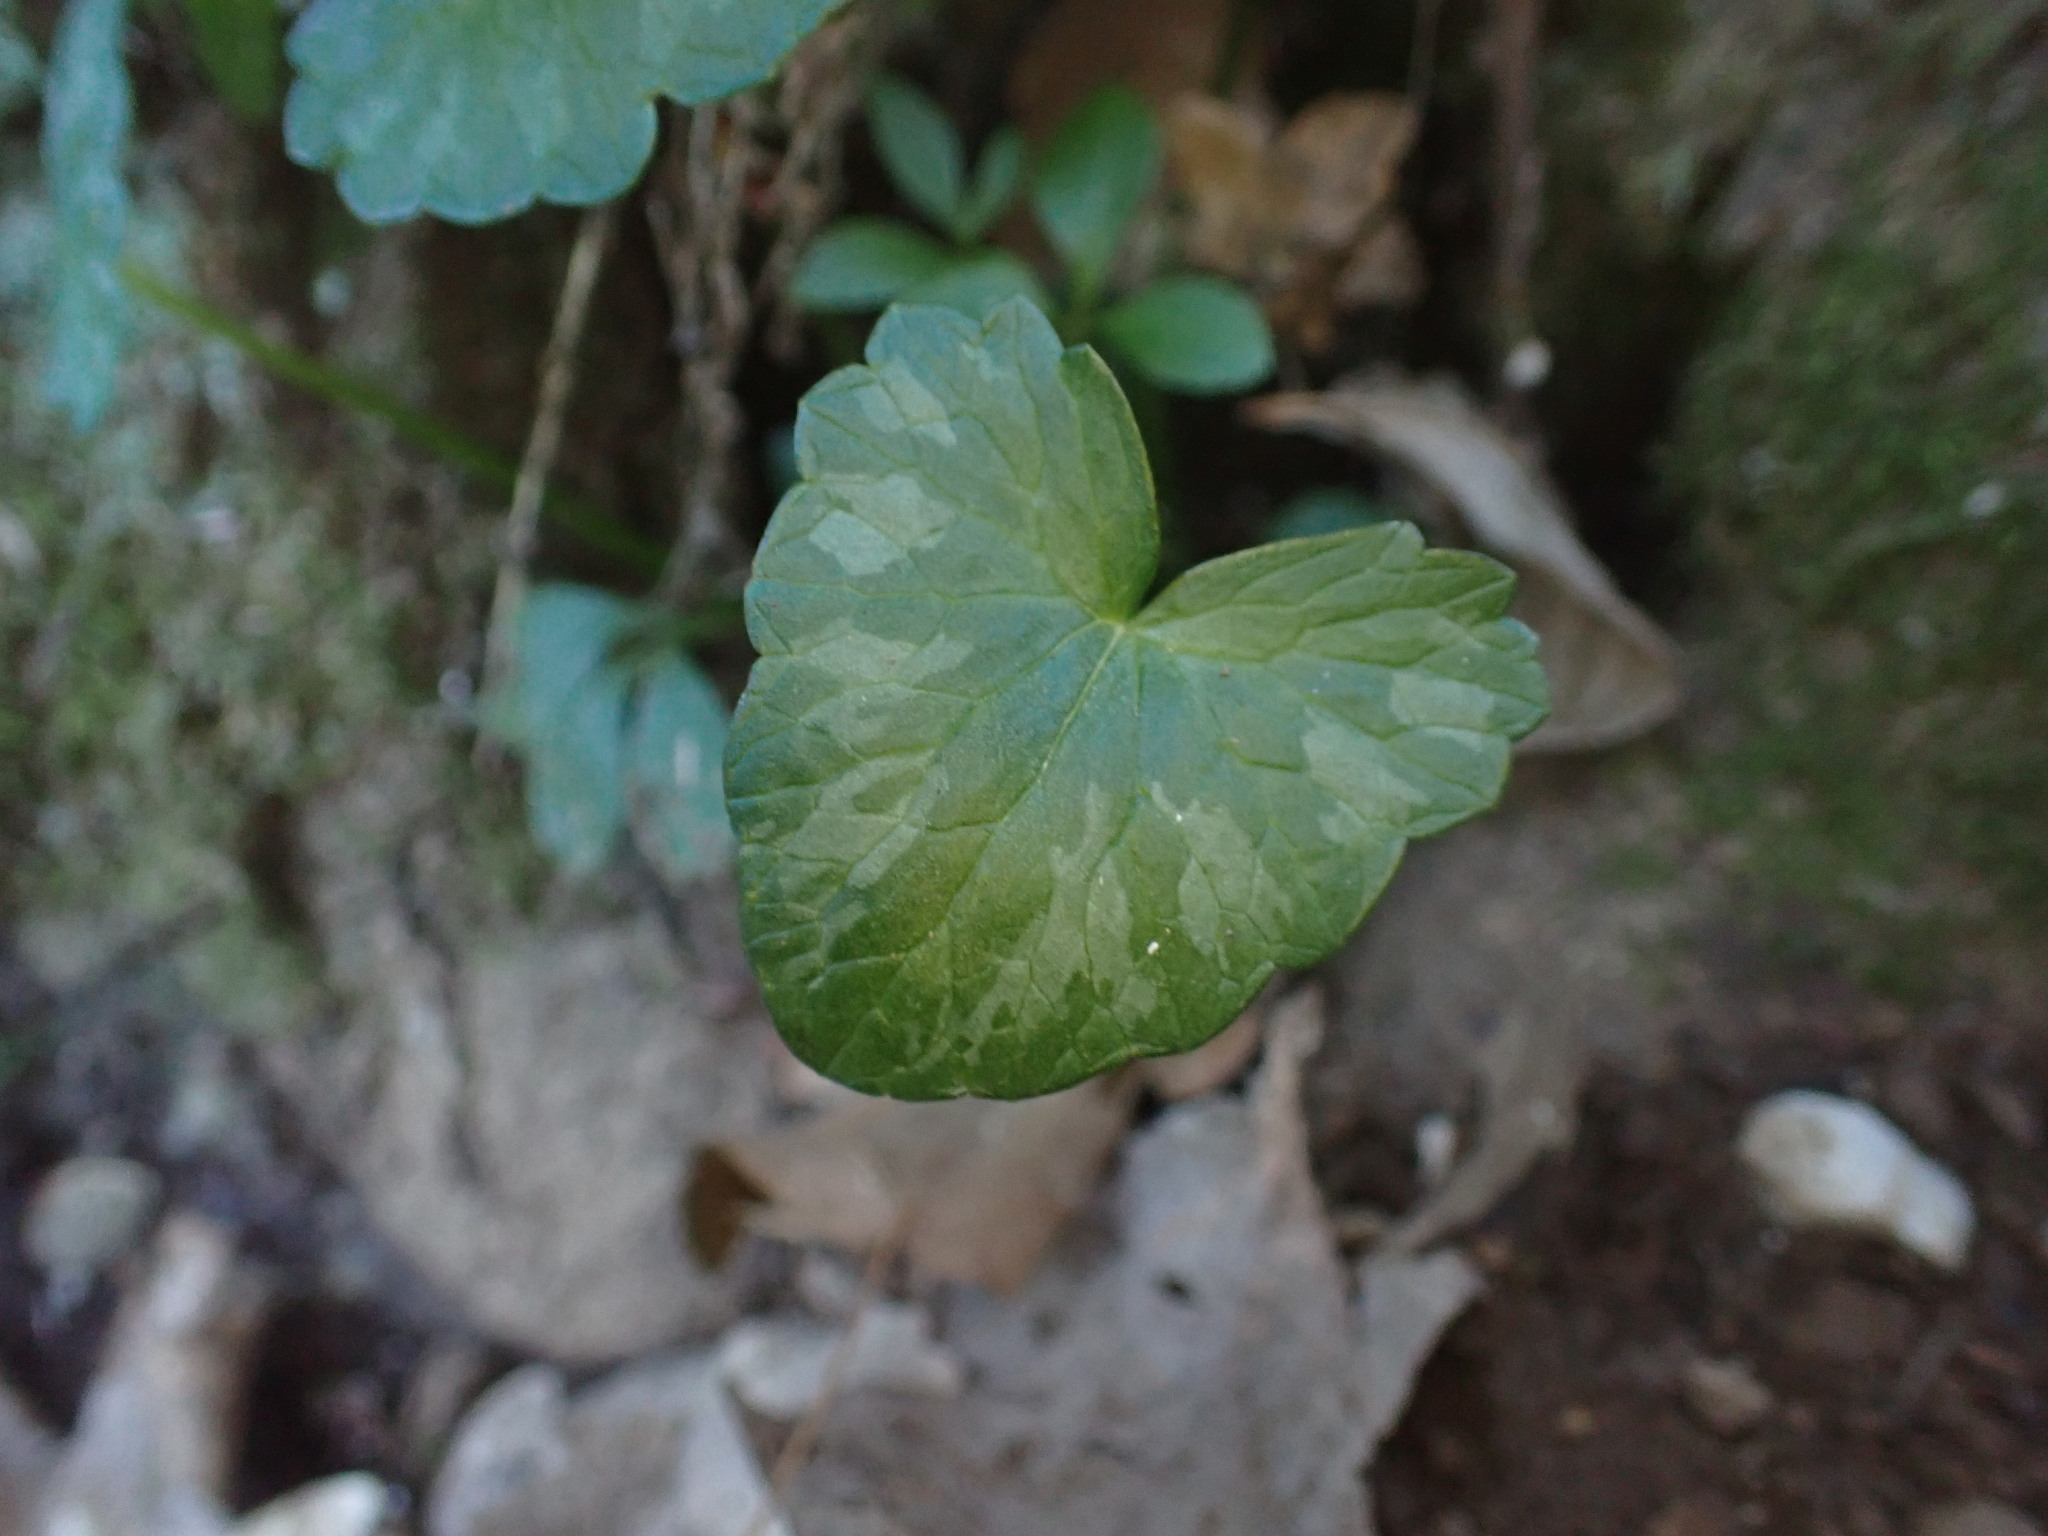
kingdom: Plantae
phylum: Tracheophyta
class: Magnoliopsida
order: Ranunculales
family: Ranunculaceae
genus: Ficaria
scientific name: Ficaria verna
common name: Lesser celandine
